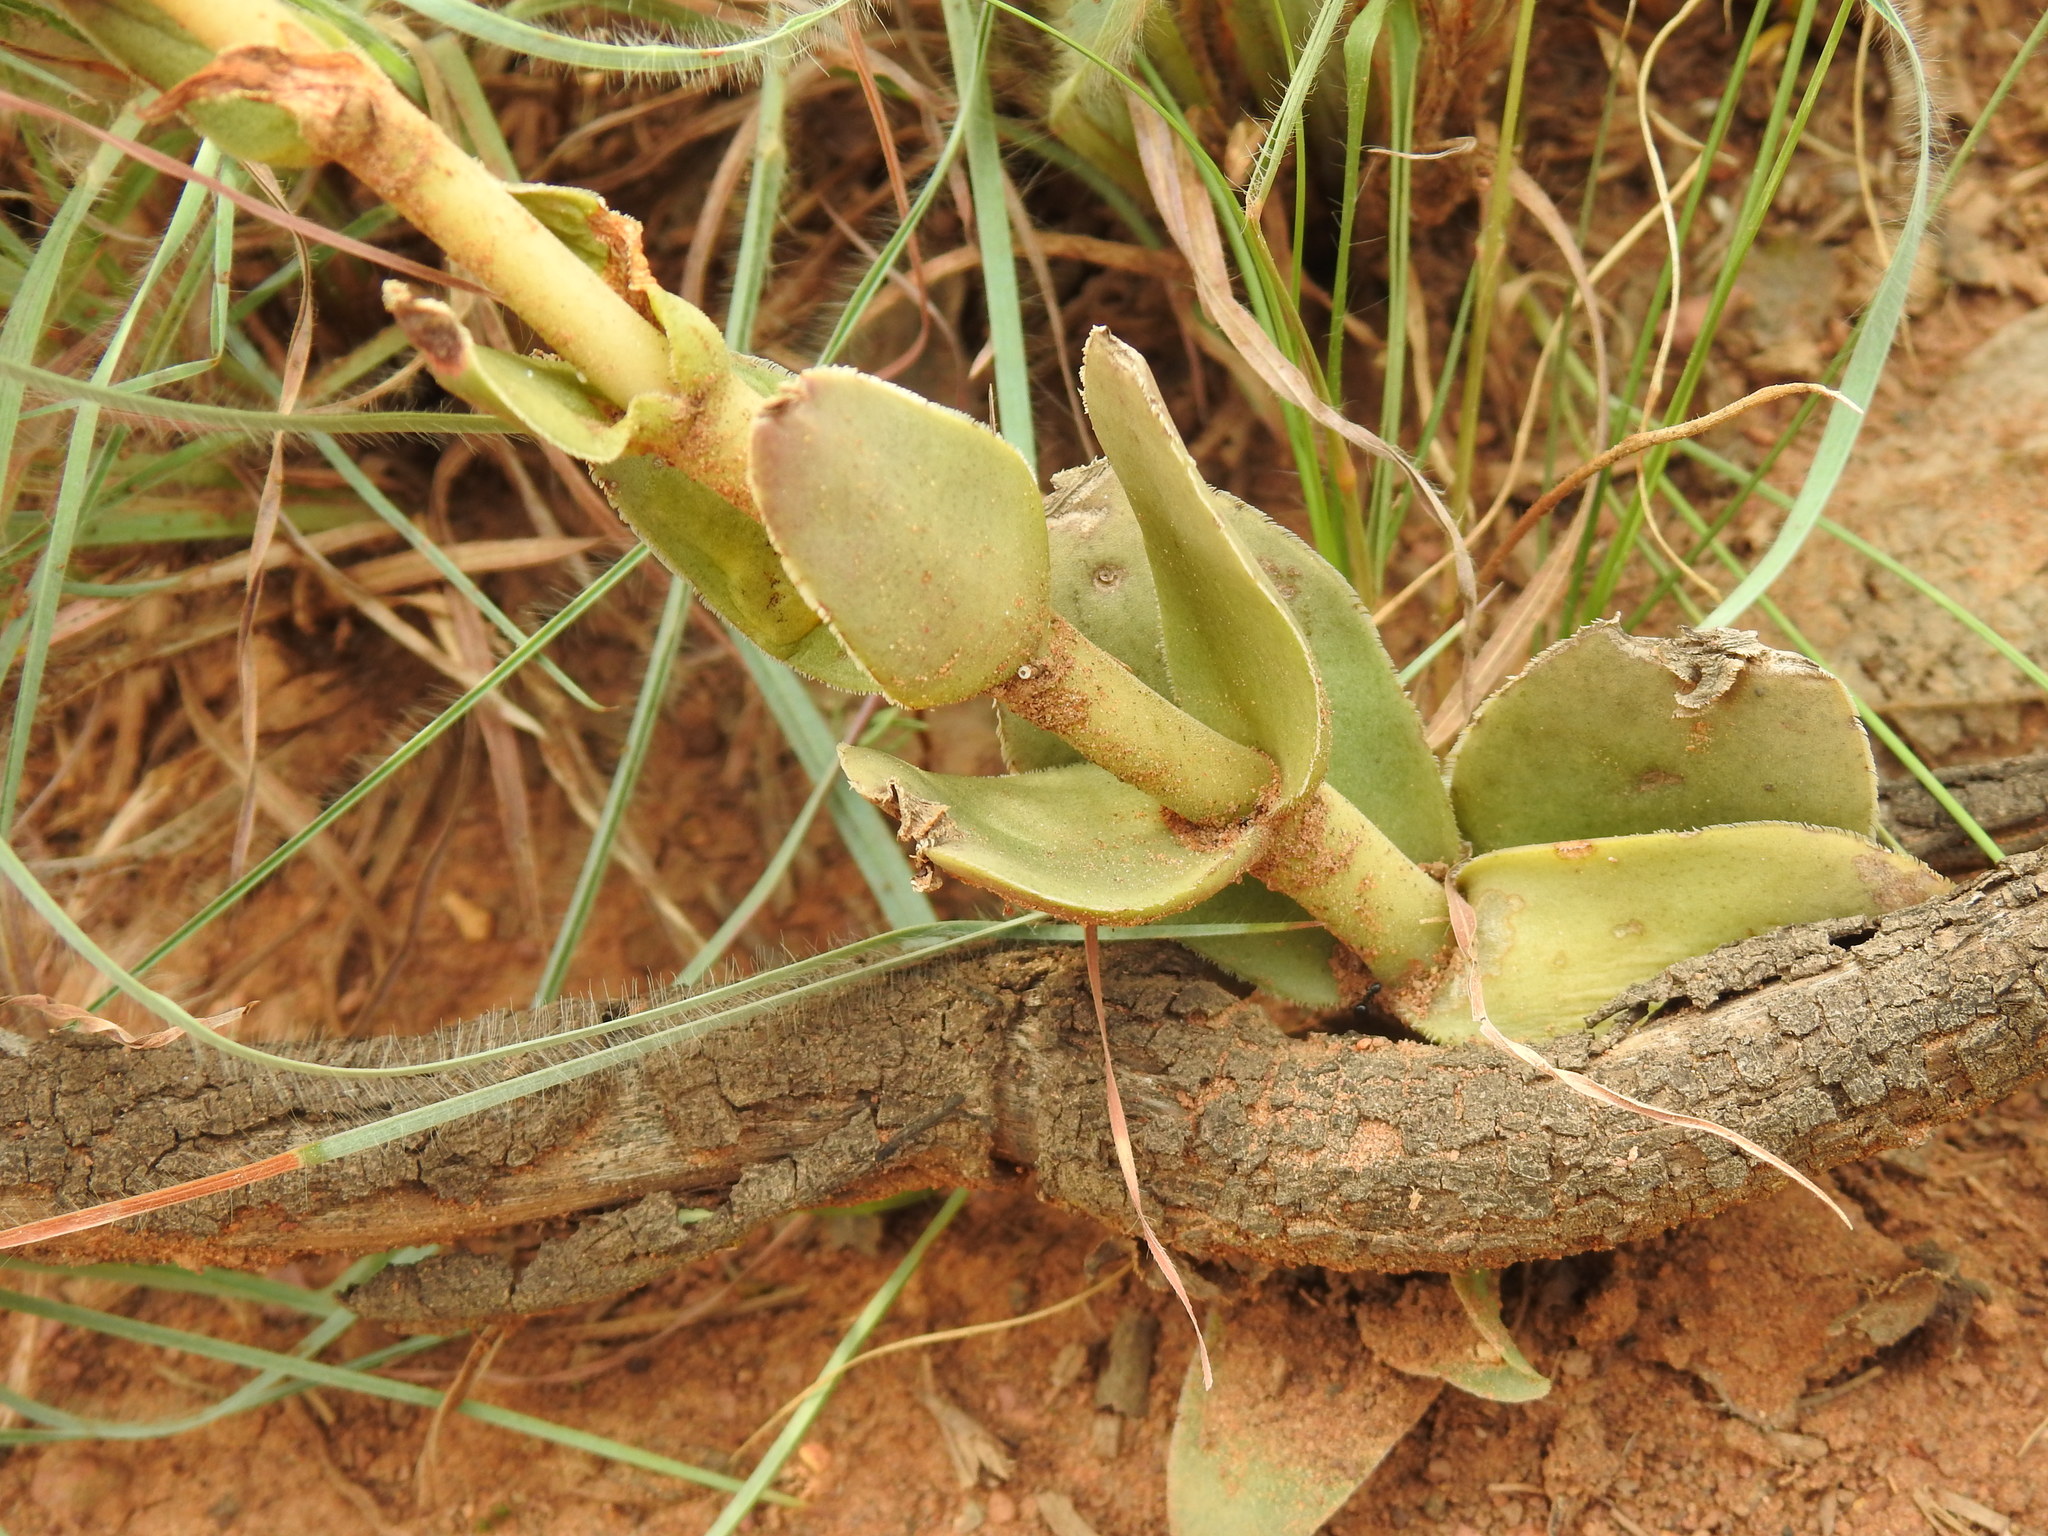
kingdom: Plantae
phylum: Tracheophyta
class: Magnoliopsida
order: Saxifragales
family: Crassulaceae
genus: Crassula
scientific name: Crassula capitella
